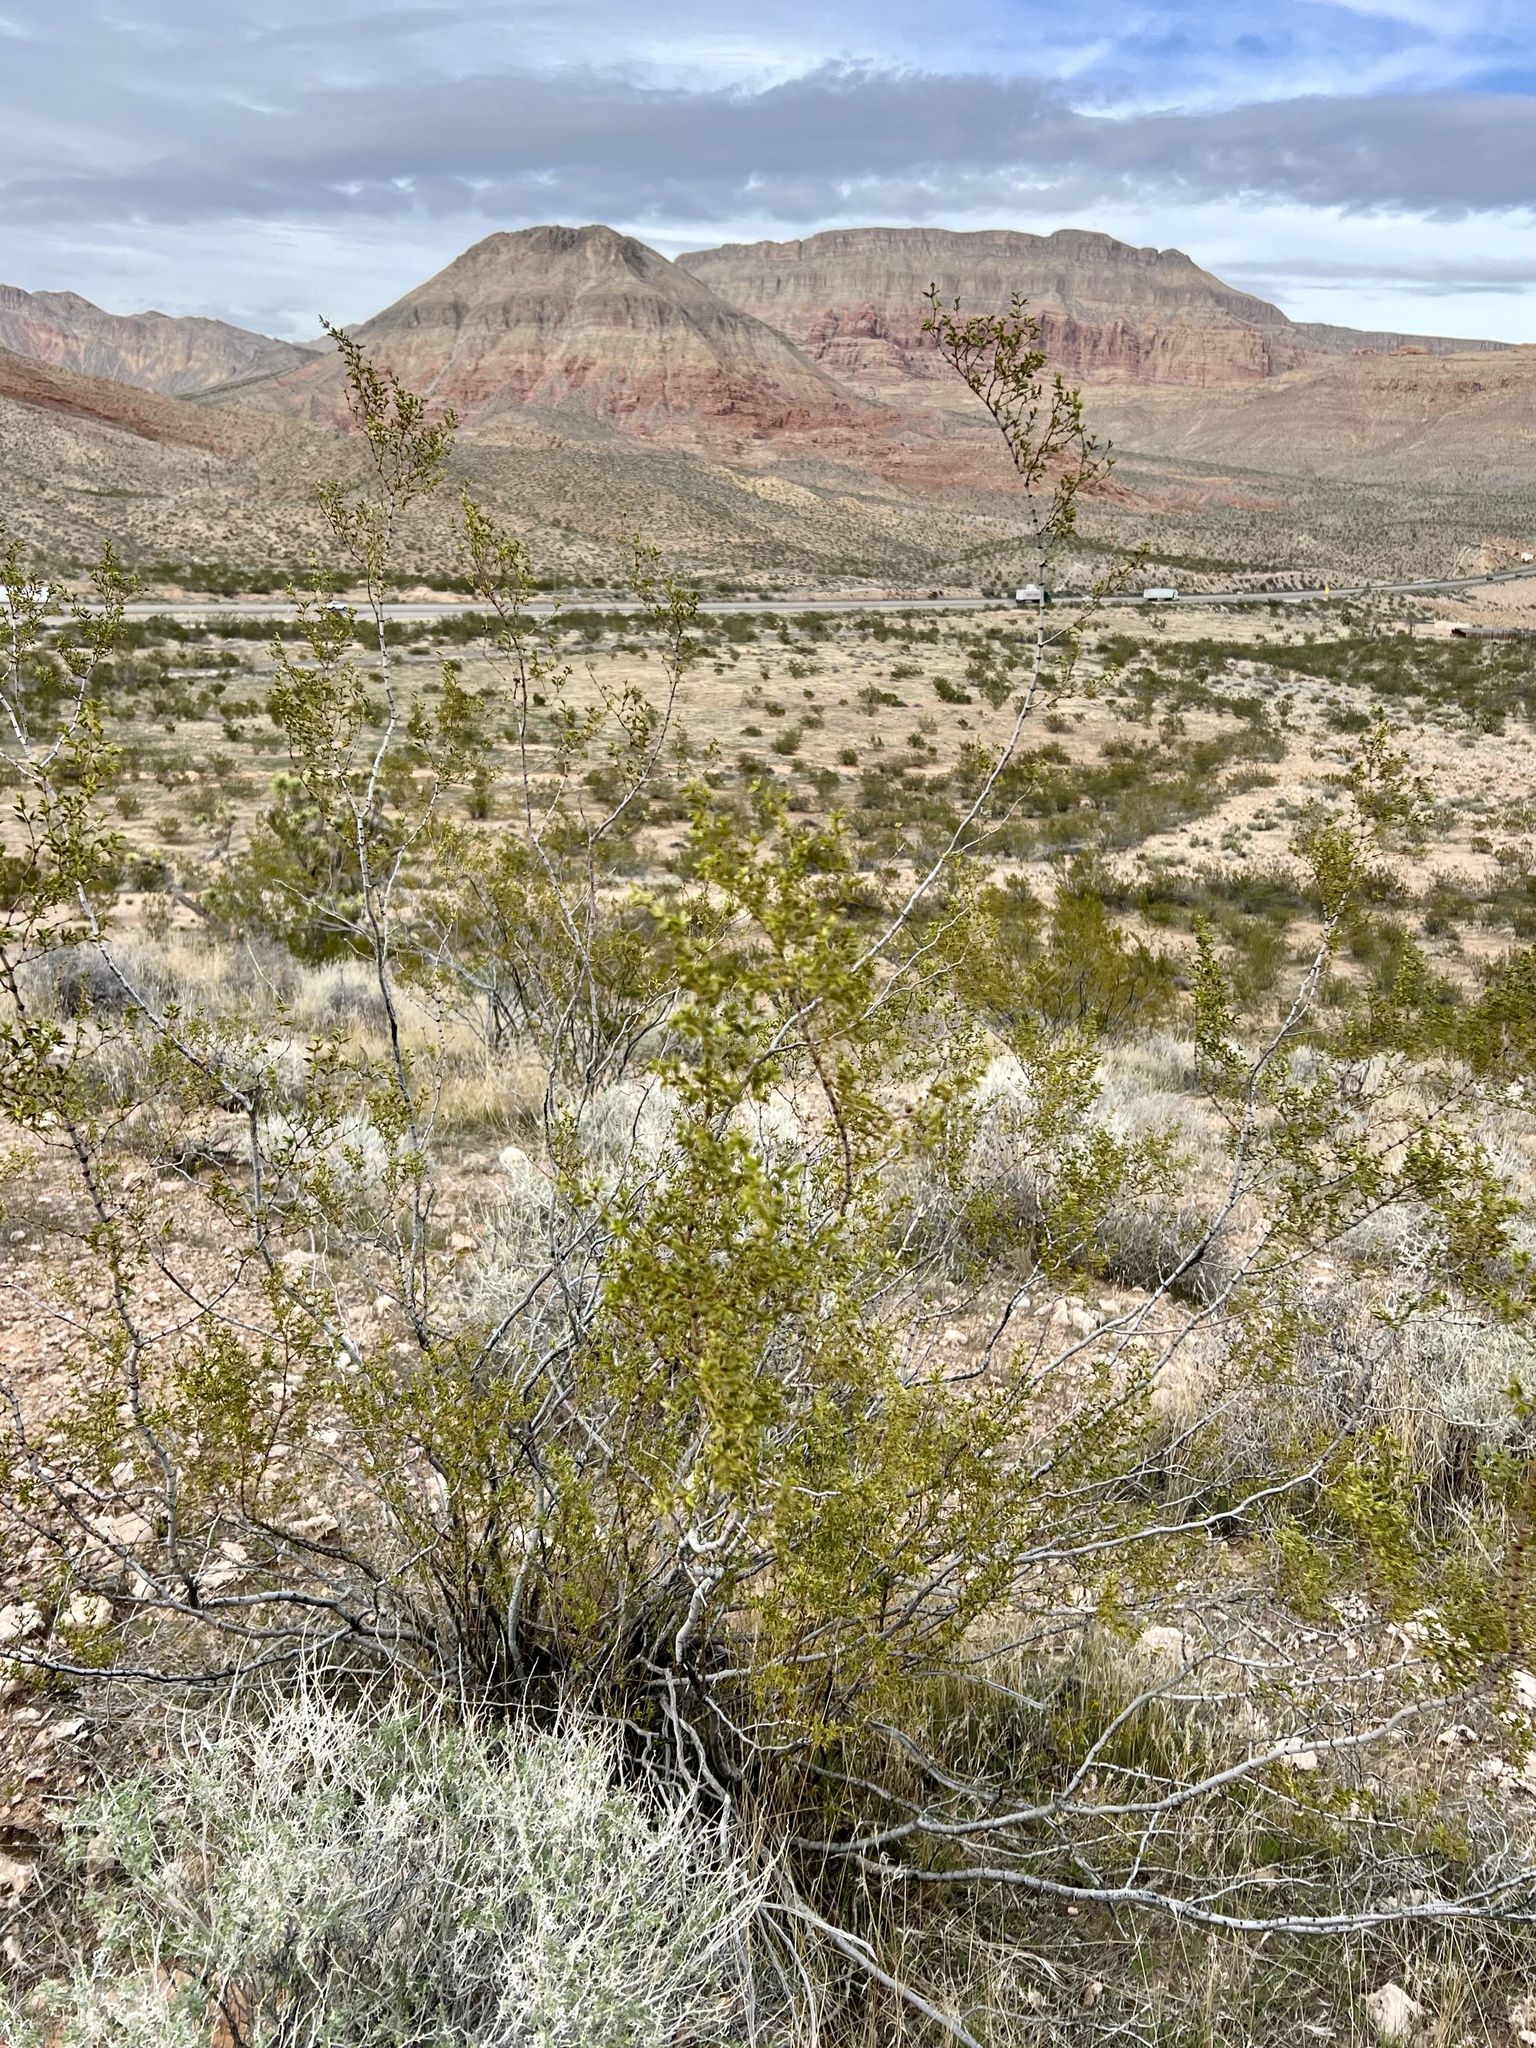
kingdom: Plantae
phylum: Tracheophyta
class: Magnoliopsida
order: Zygophyllales
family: Zygophyllaceae
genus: Larrea
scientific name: Larrea tridentata
